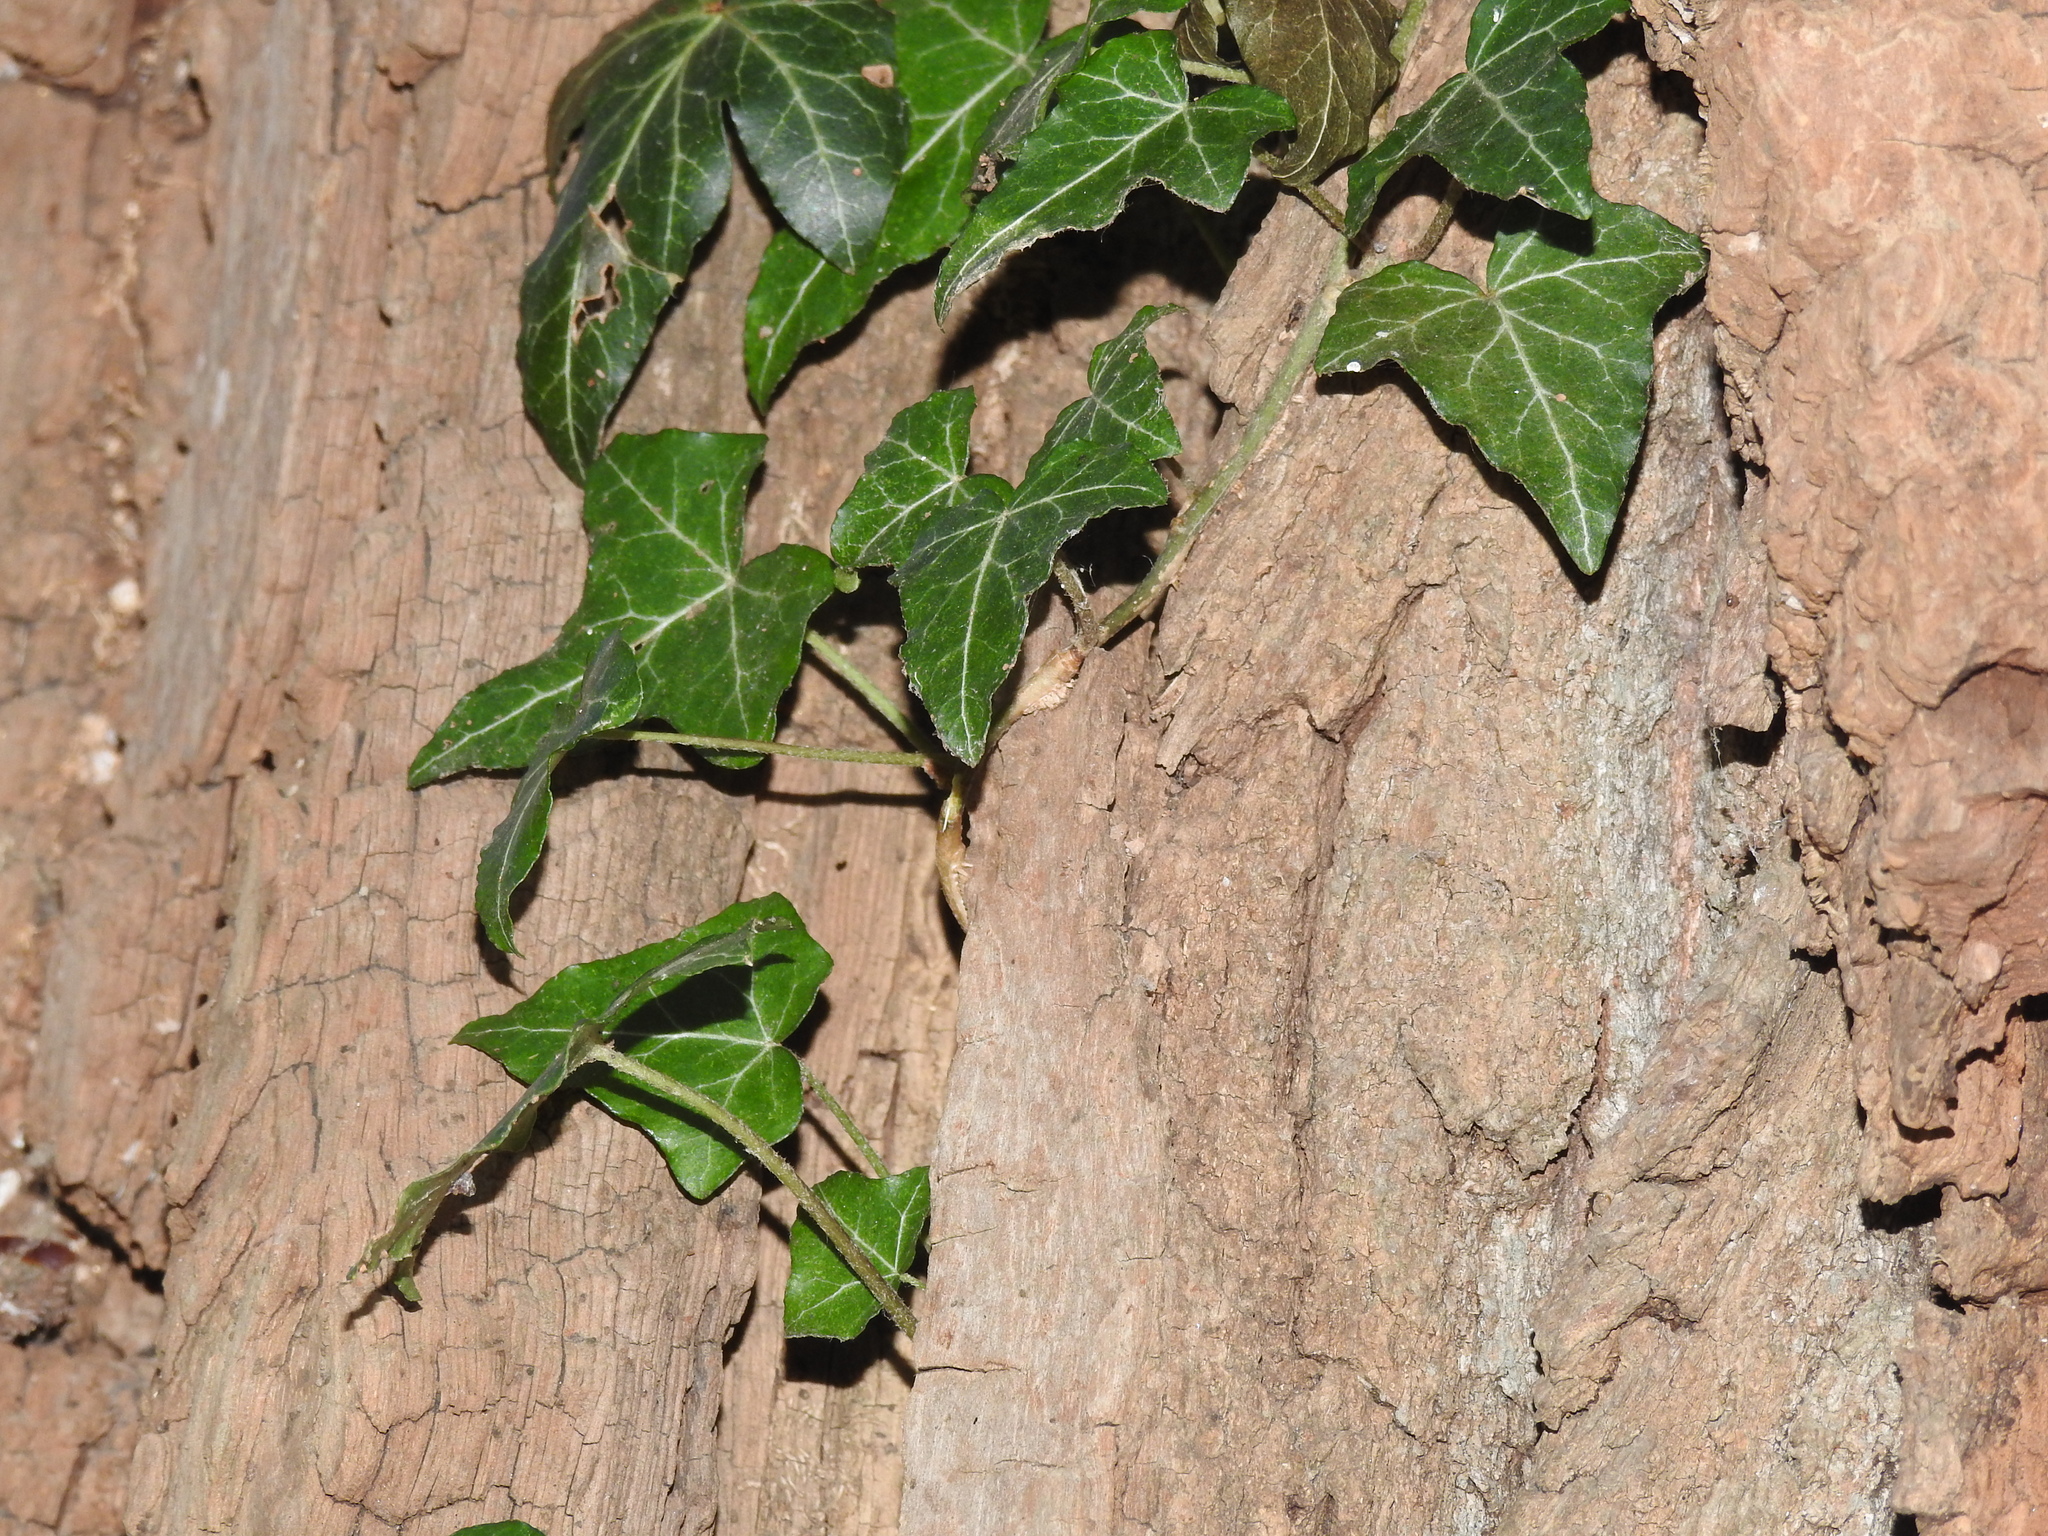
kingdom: Plantae
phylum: Tracheophyta
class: Magnoliopsida
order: Apiales
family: Araliaceae
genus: Hedera
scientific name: Hedera helix
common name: Ivy
